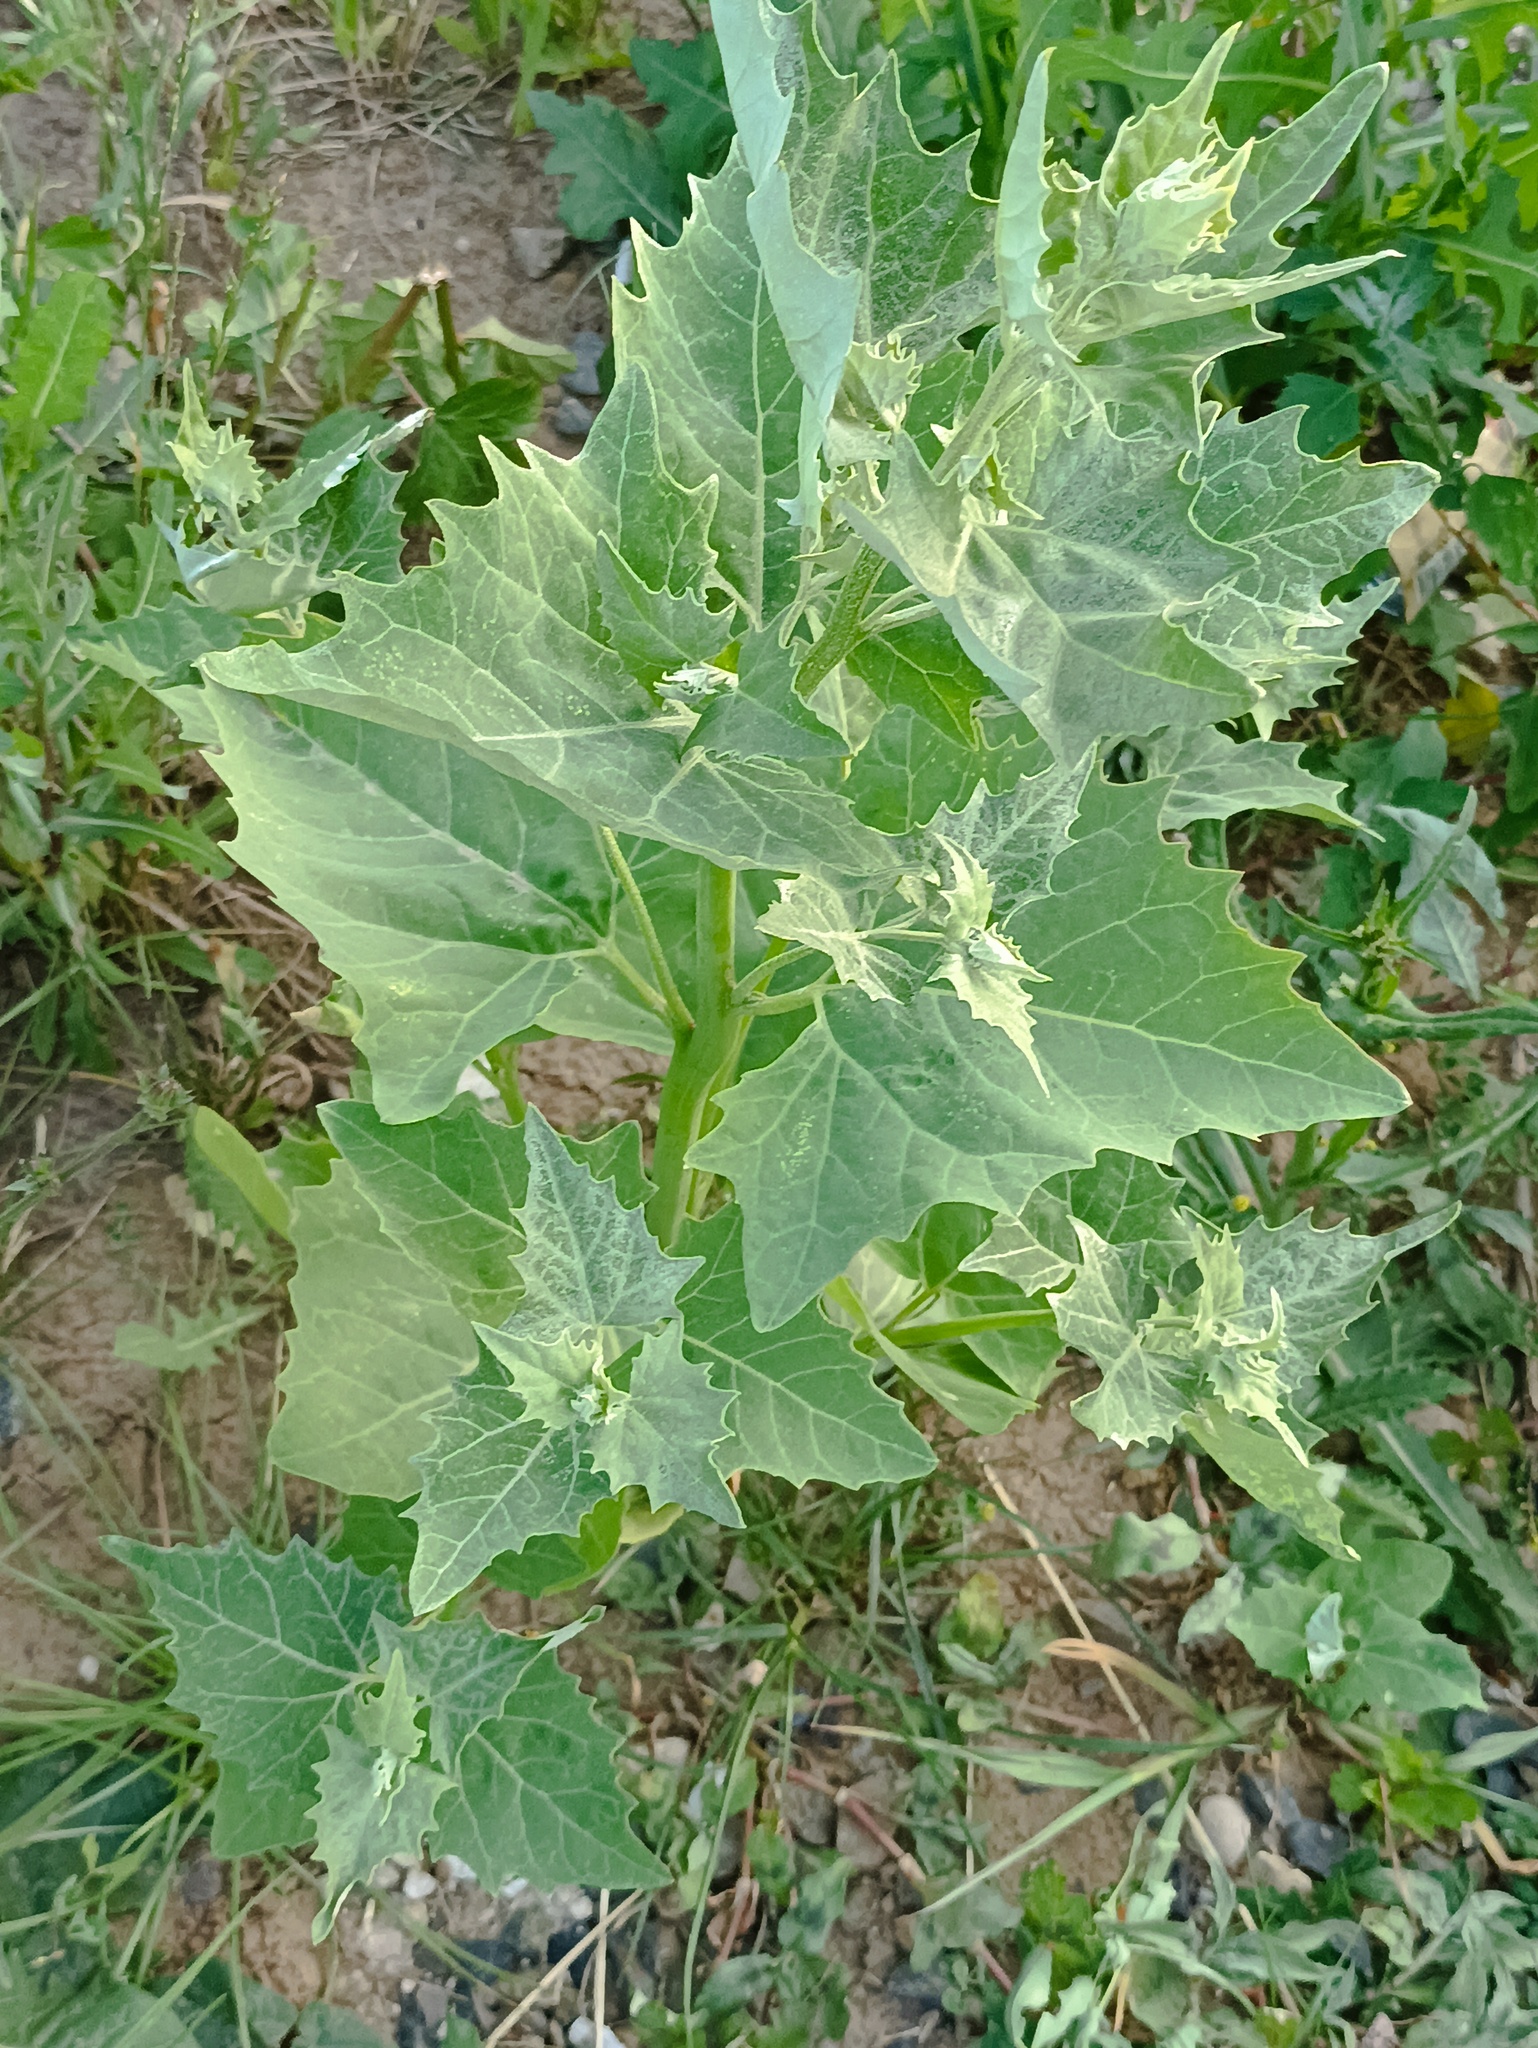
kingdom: Plantae
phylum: Tracheophyta
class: Magnoliopsida
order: Caryophyllales
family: Amaranthaceae
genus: Atriplex
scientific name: Atriplex sagittata
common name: Purple orache
